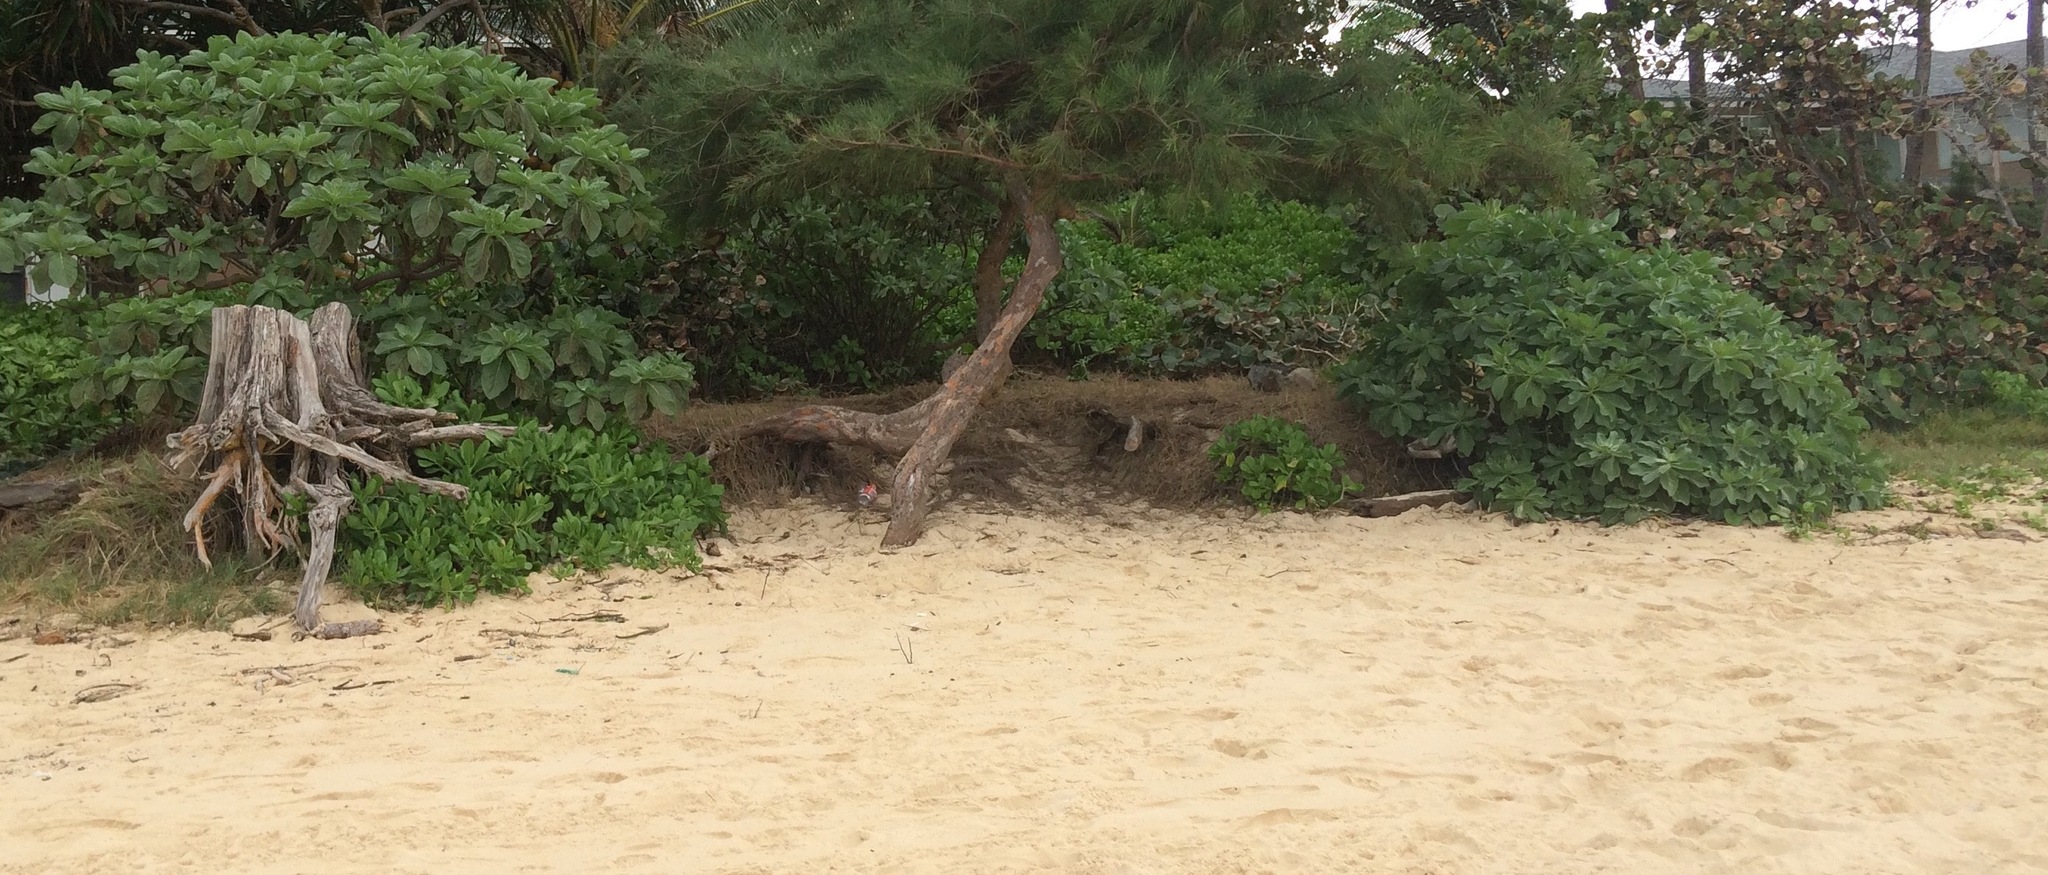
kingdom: Plantae
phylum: Tracheophyta
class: Magnoliopsida
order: Boraginales
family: Heliotropiaceae
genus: Heliotropium
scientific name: Heliotropium velutinum
